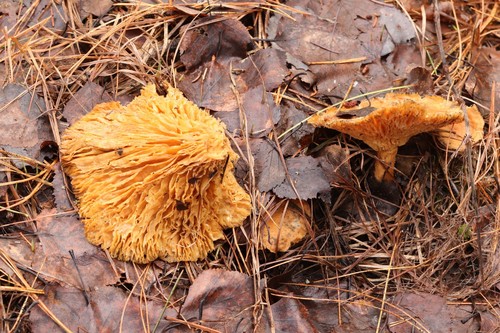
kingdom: Fungi
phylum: Basidiomycota
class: Agaricomycetes
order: Russulales
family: Russulaceae
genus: Lactarius
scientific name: Lactarius helvus
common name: Fenugreek milkcap
